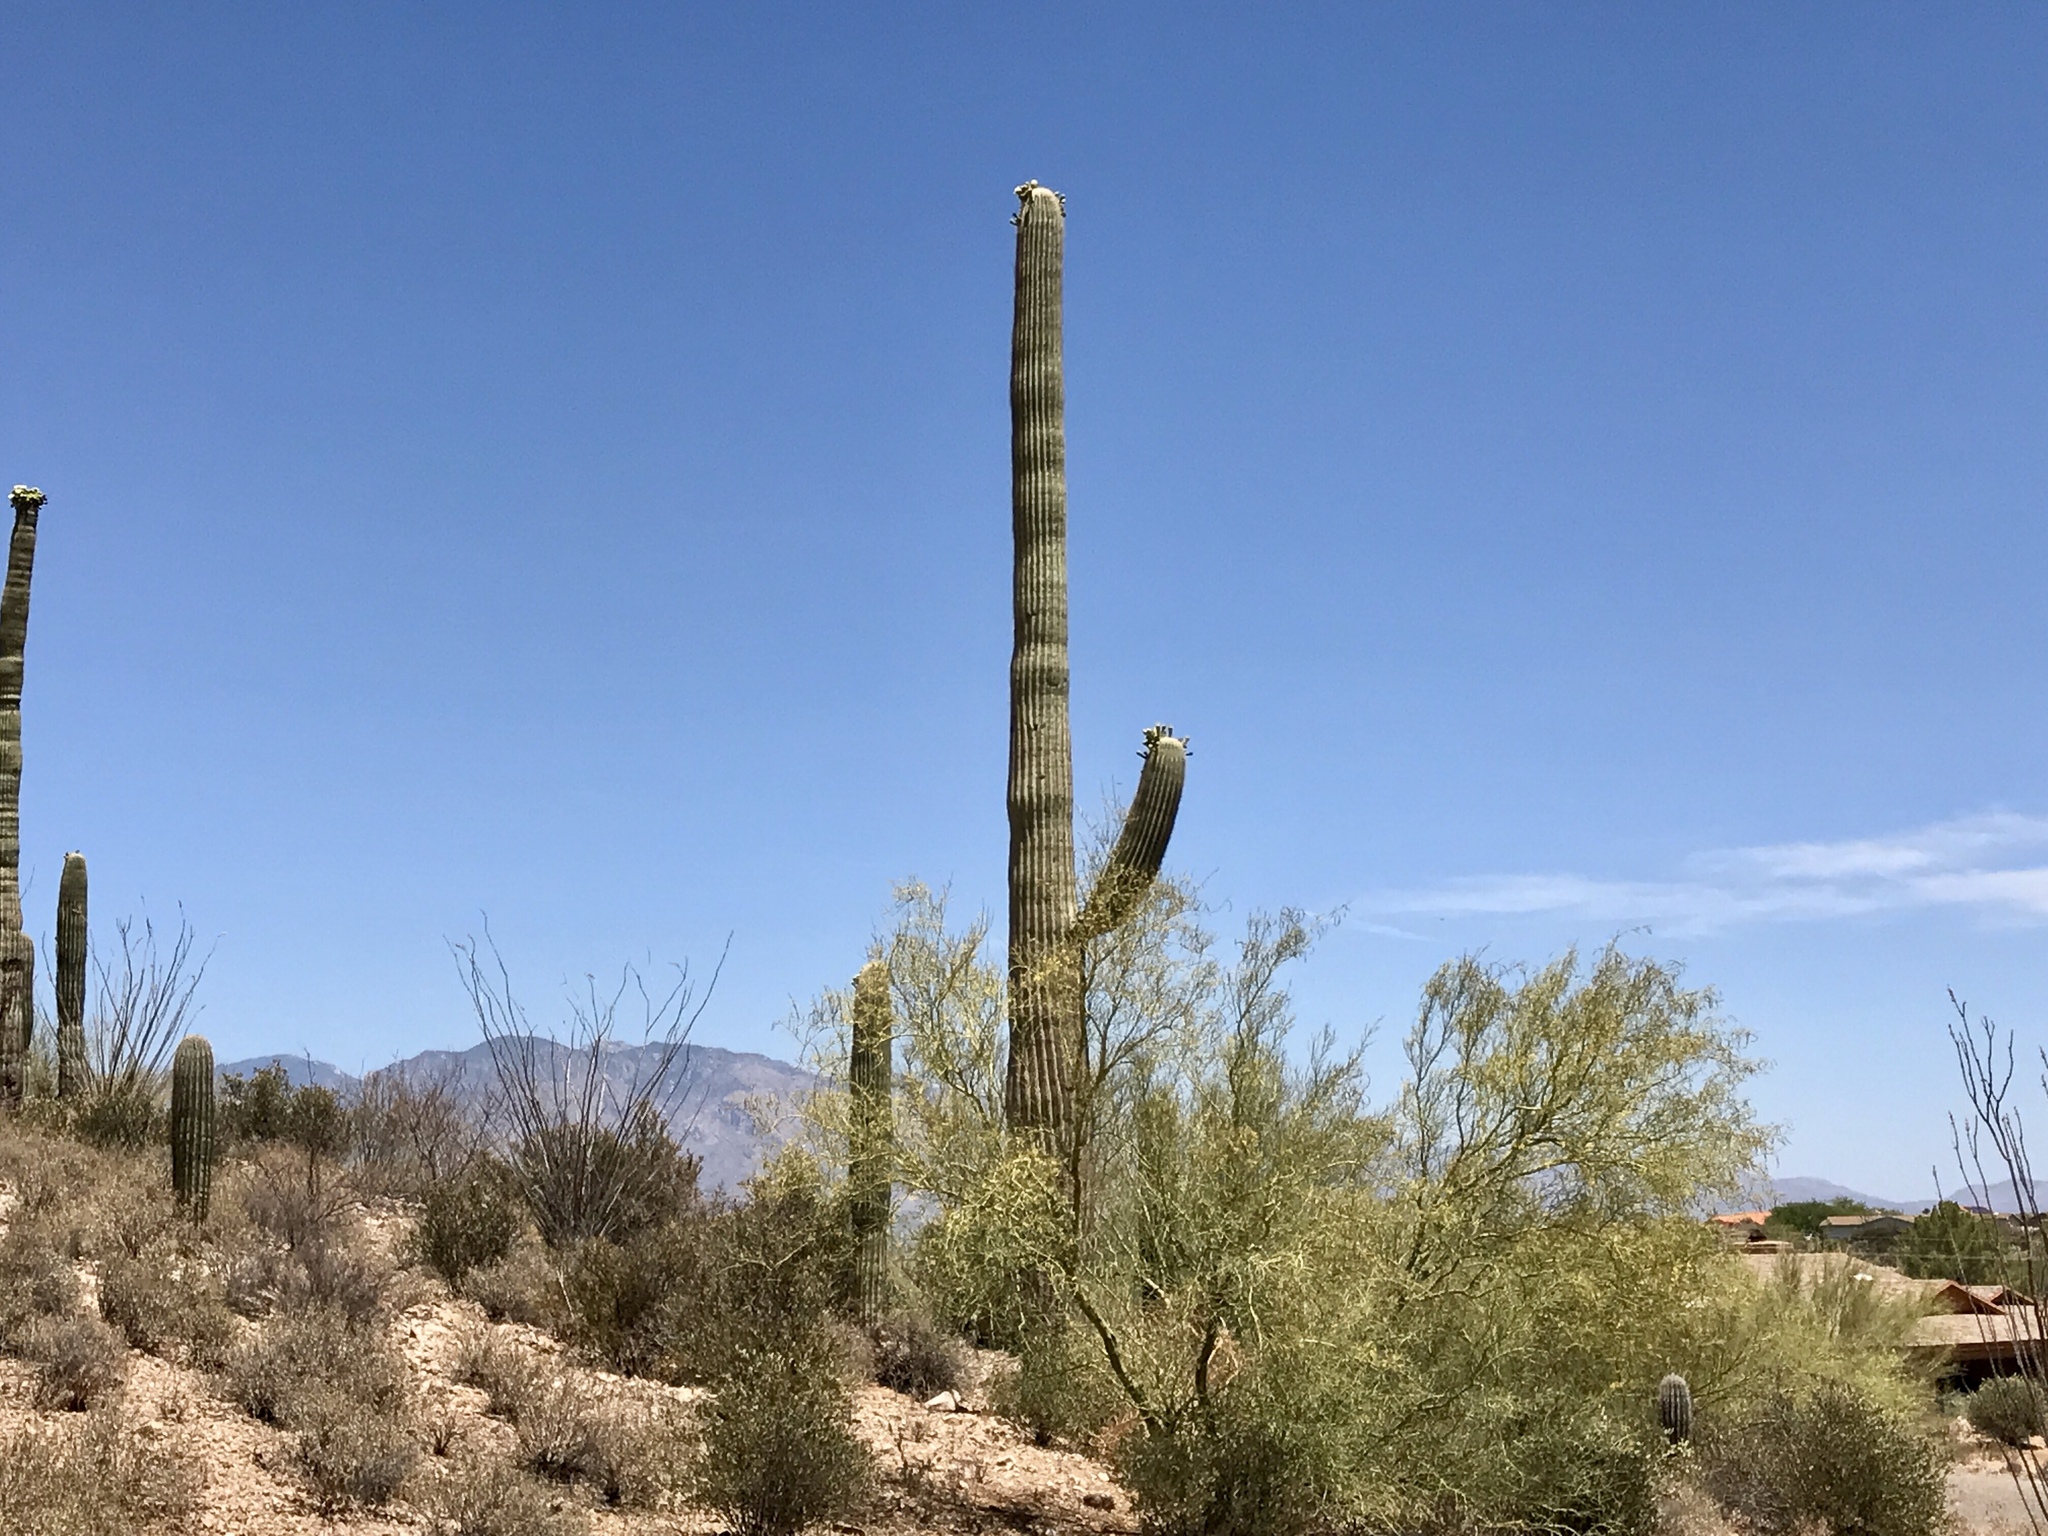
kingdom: Plantae
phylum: Tracheophyta
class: Magnoliopsida
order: Caryophyllales
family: Cactaceae
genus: Carnegiea
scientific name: Carnegiea gigantea
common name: Saguaro
